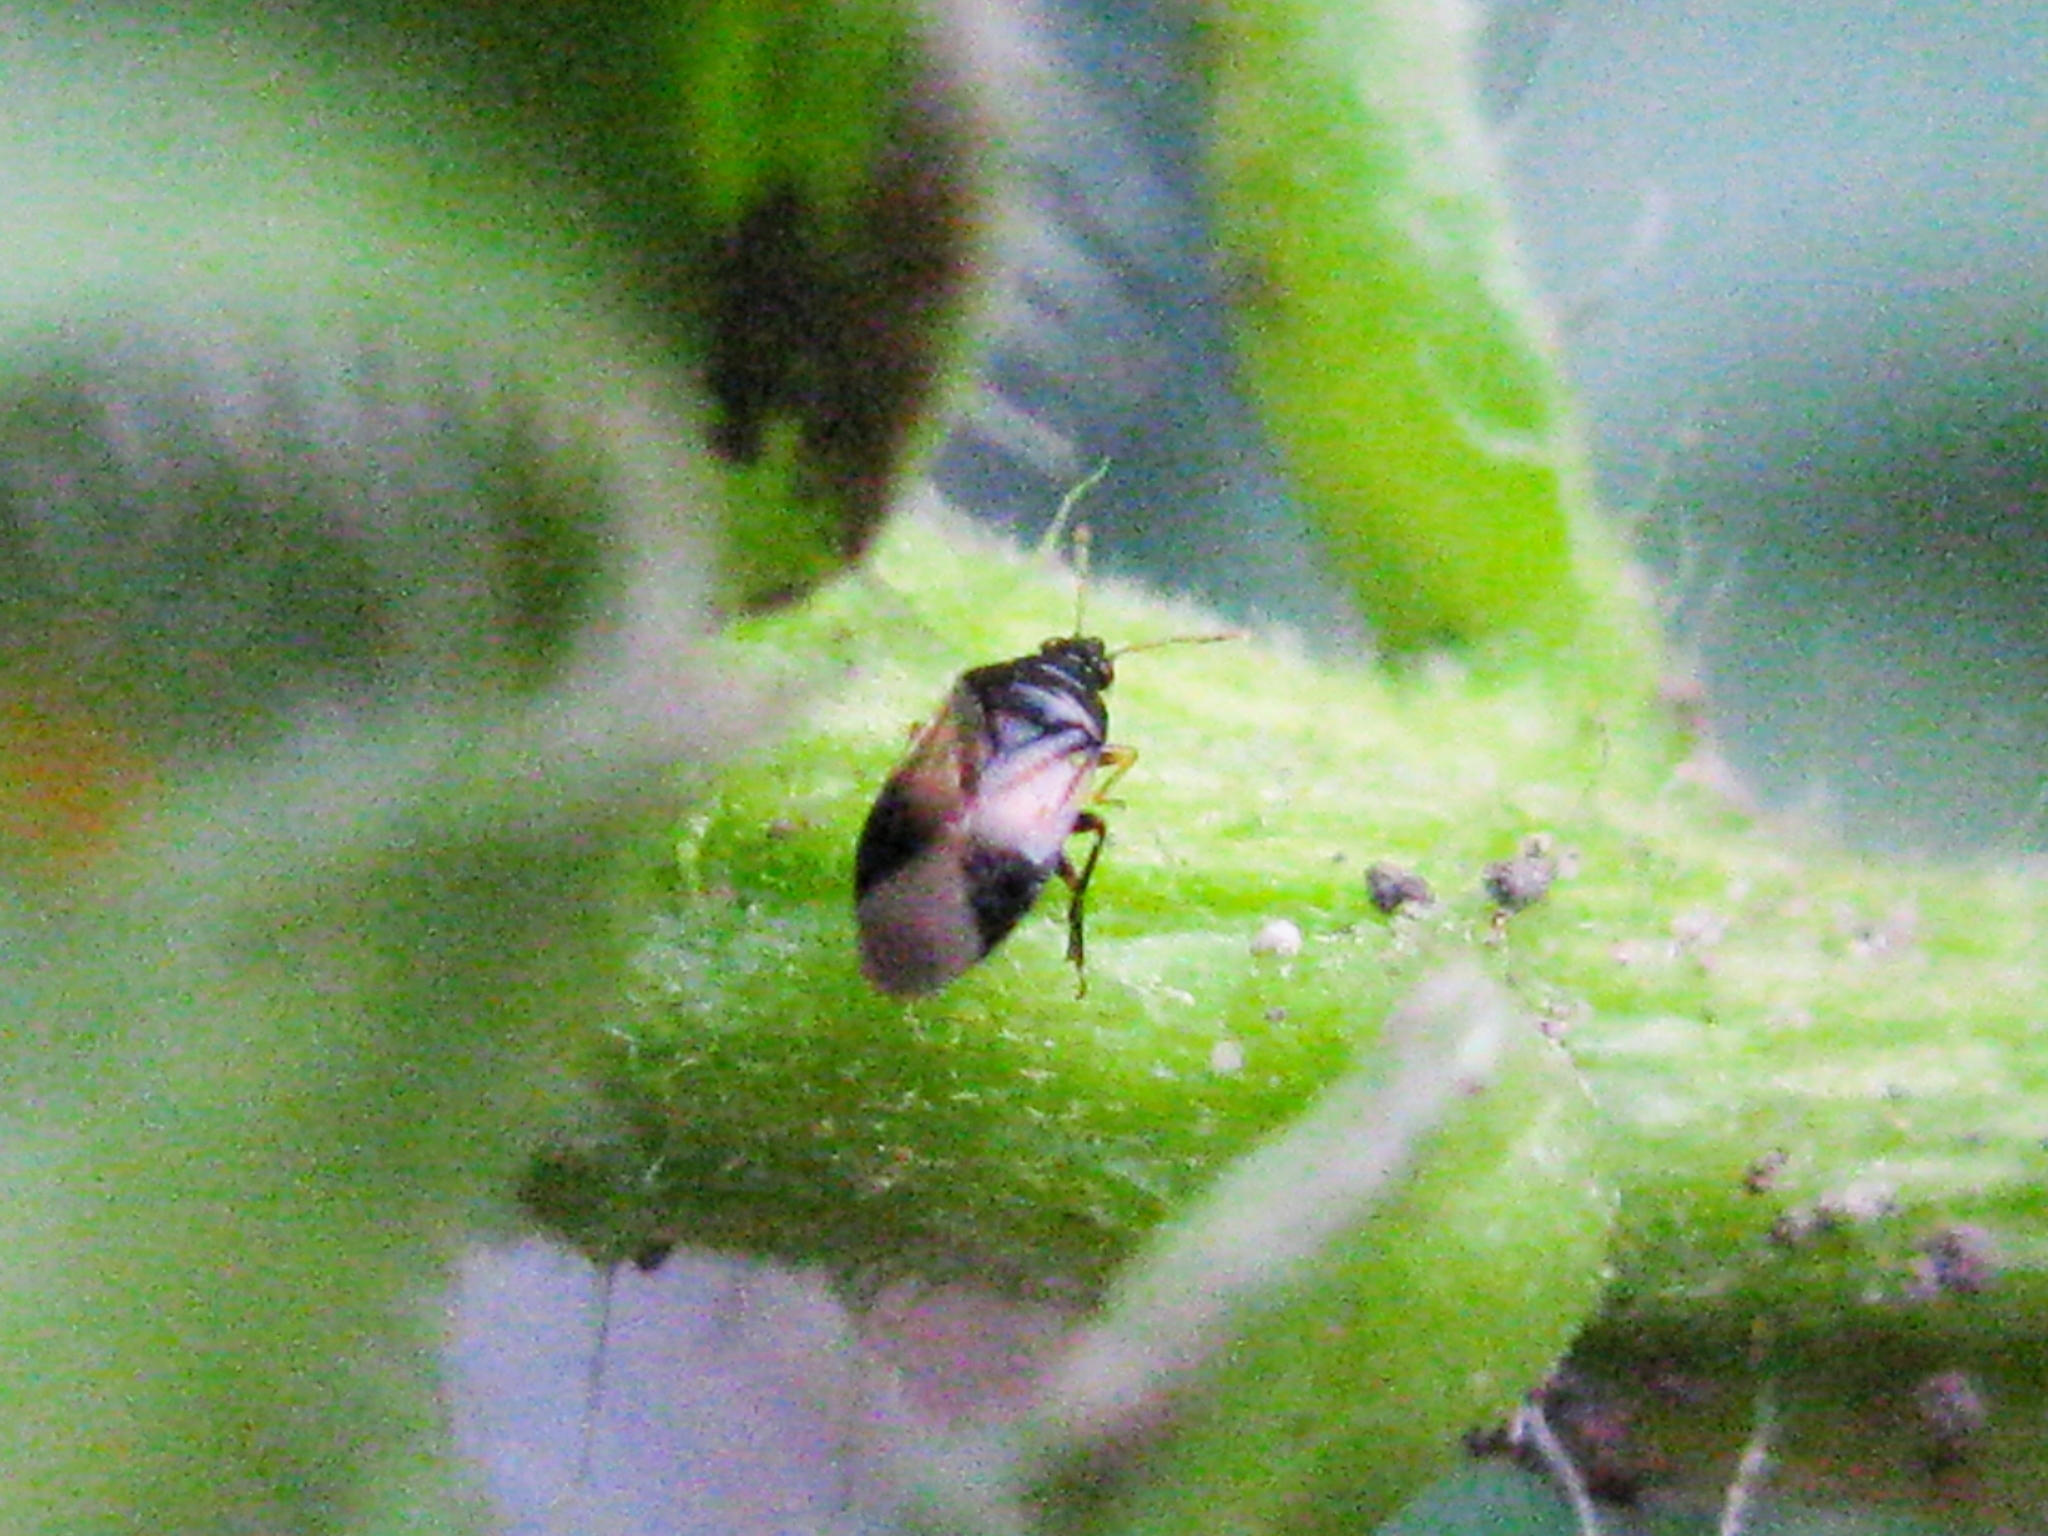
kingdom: Animalia
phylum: Arthropoda
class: Insecta
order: Hemiptera
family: Anthocoridae
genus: Orius
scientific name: Orius
